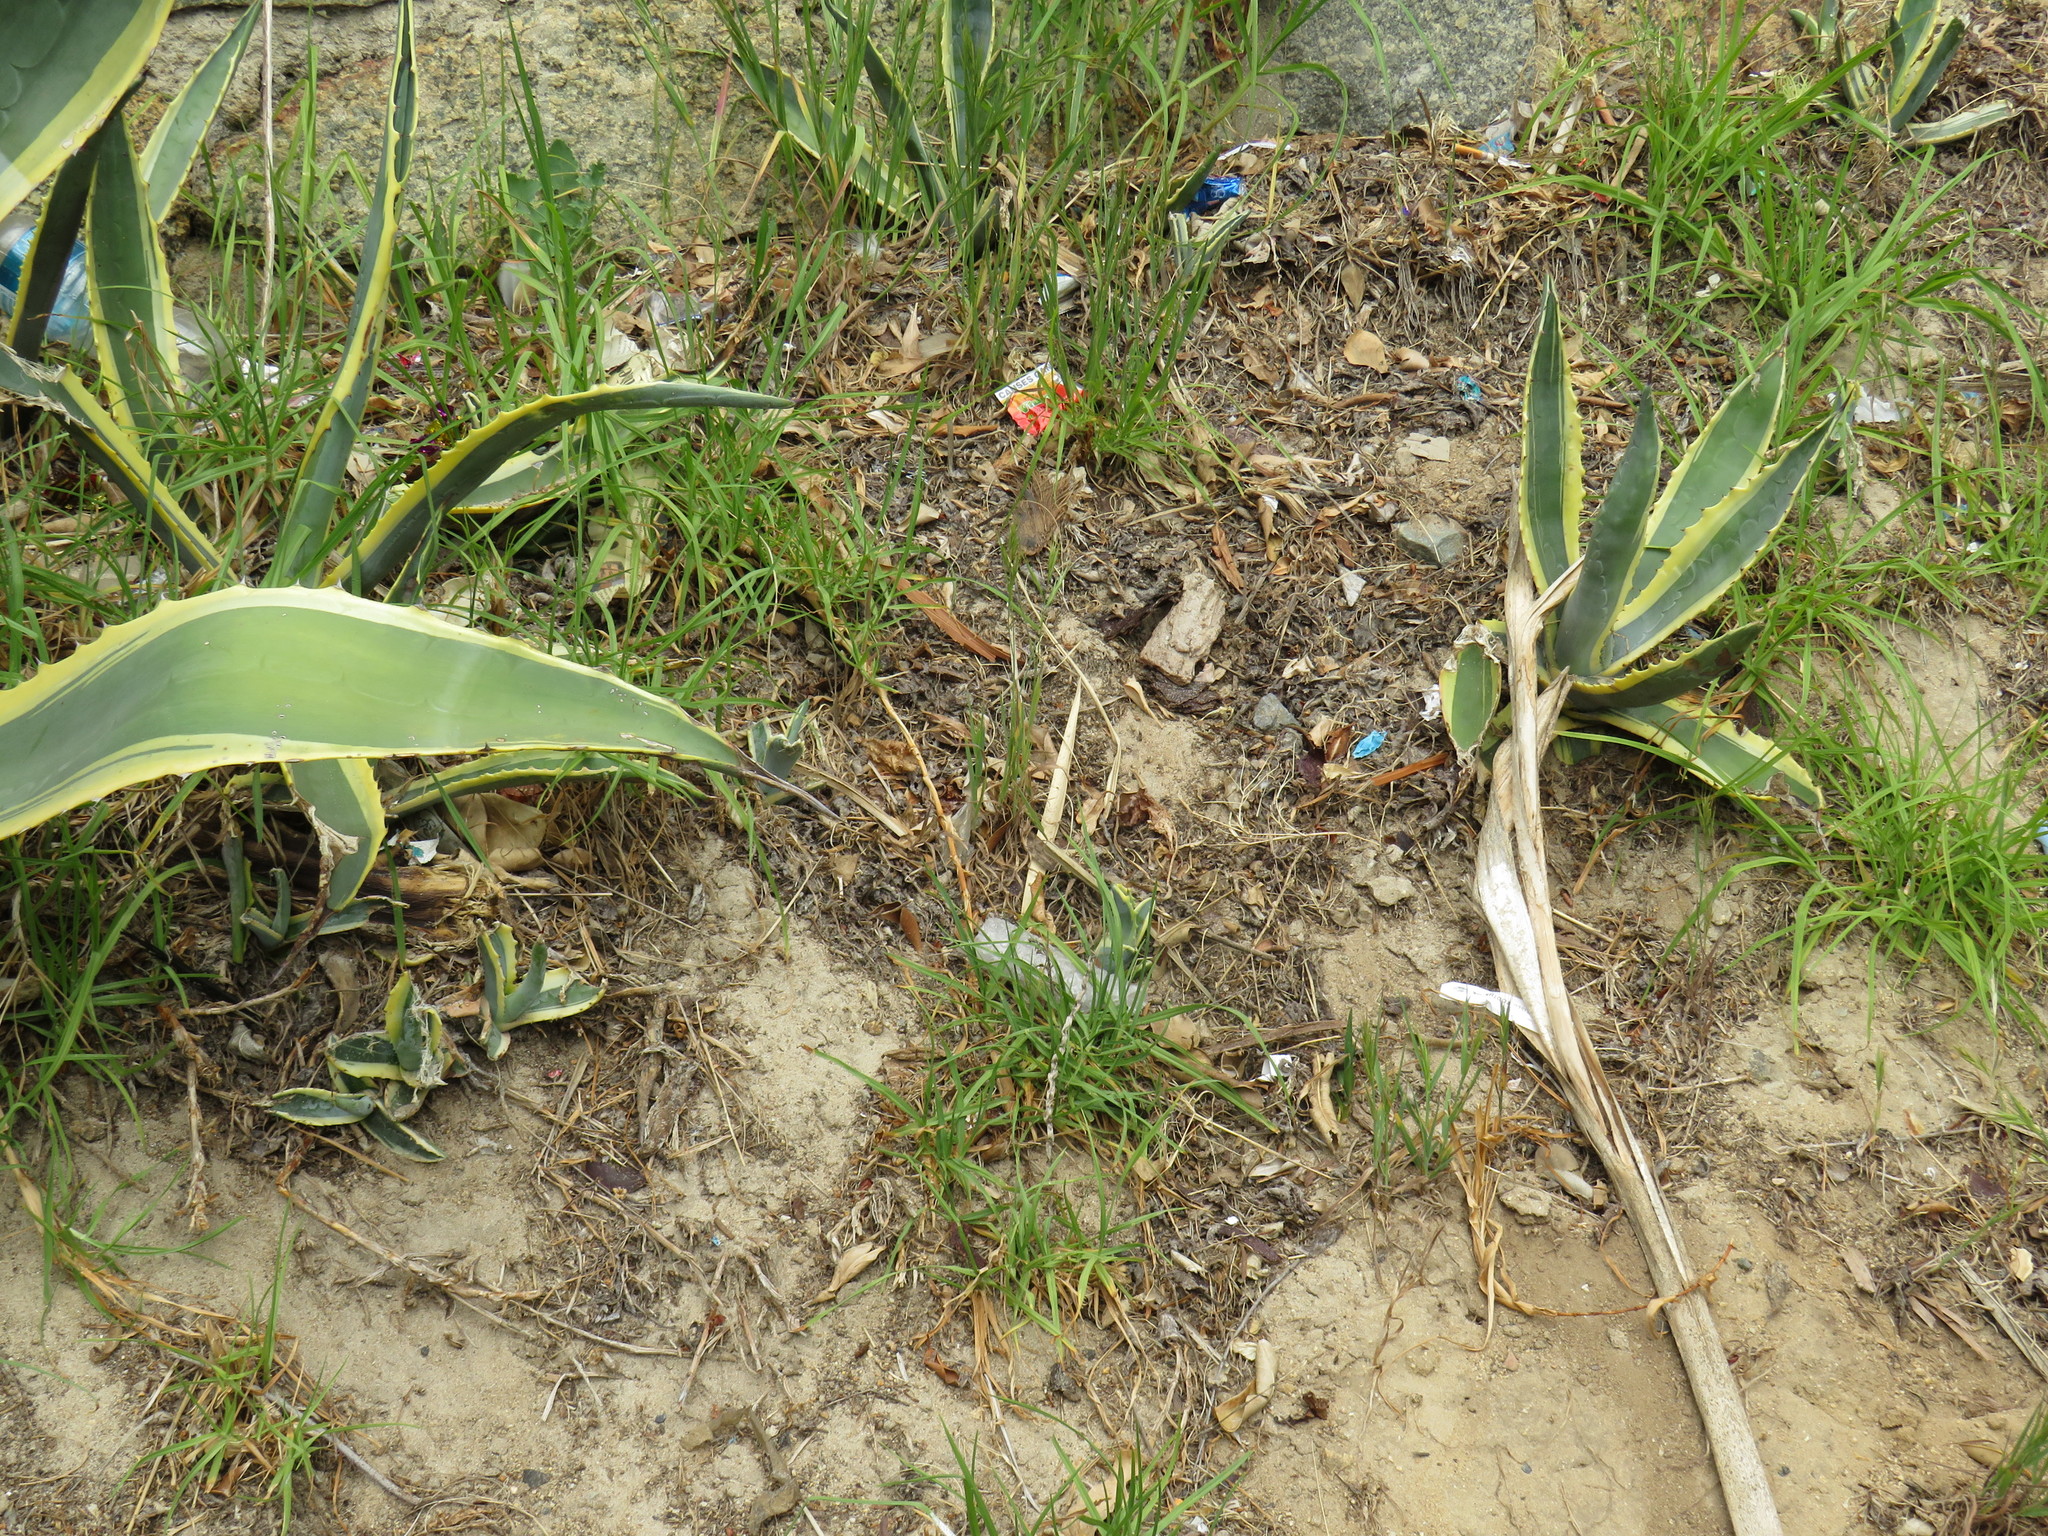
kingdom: Plantae
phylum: Tracheophyta
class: Liliopsida
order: Asparagales
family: Asparagaceae
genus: Agave
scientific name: Agave americana
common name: Centuryplant
